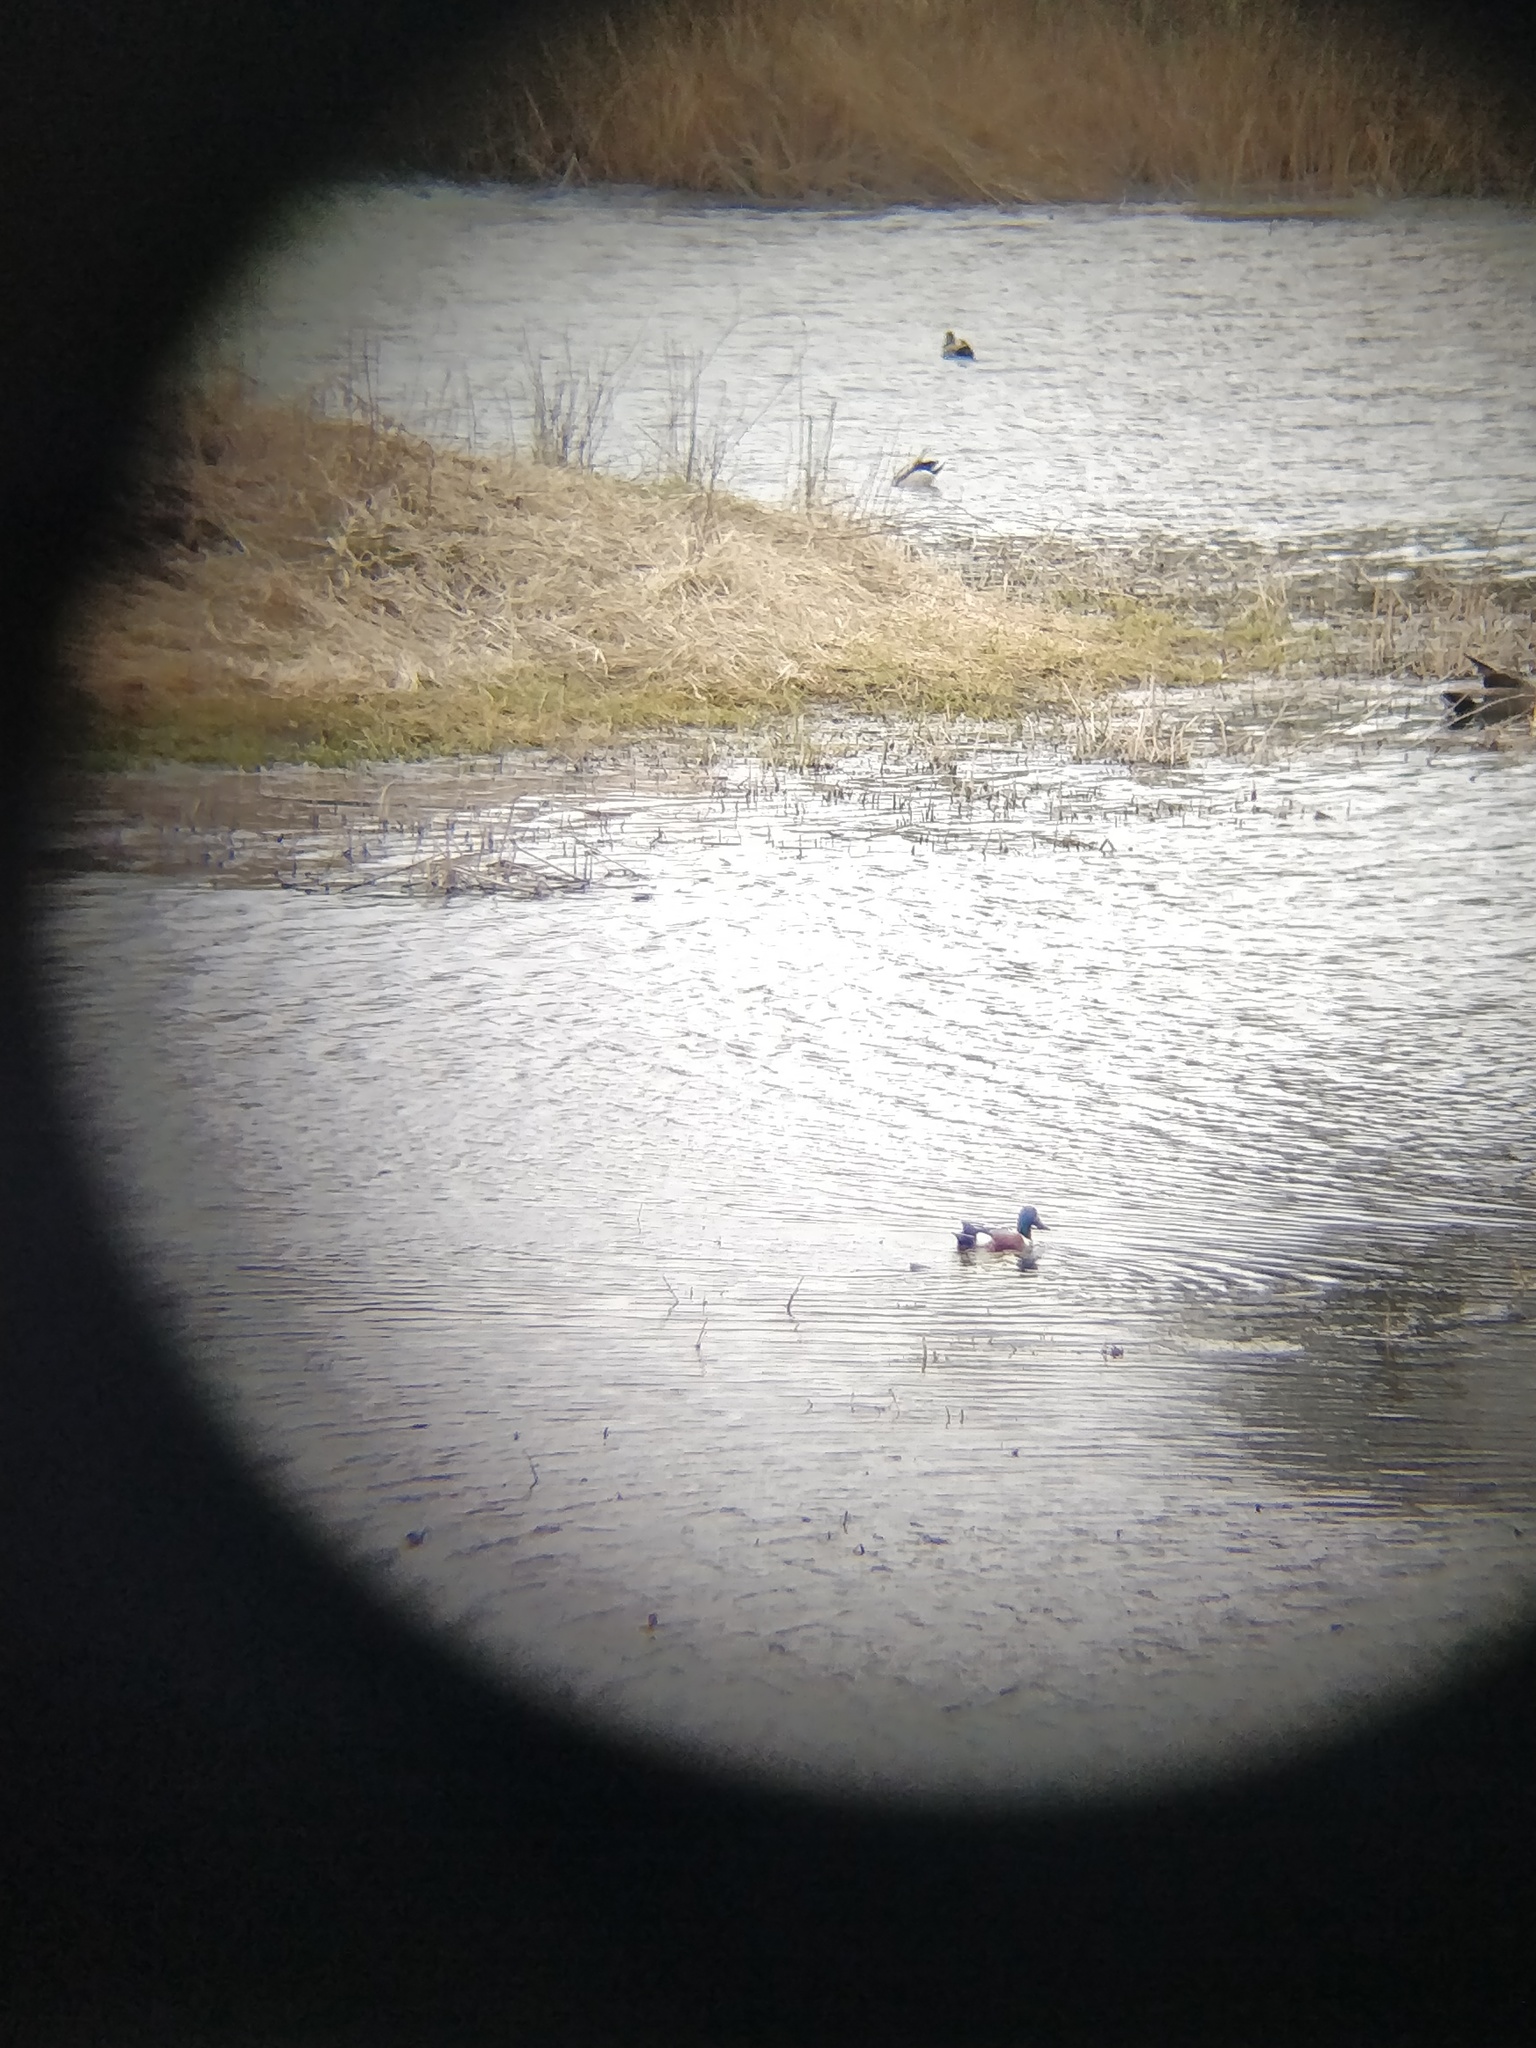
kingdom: Animalia
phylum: Chordata
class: Aves
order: Anseriformes
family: Anatidae
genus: Spatula
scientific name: Spatula clypeata
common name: Northern shoveler
